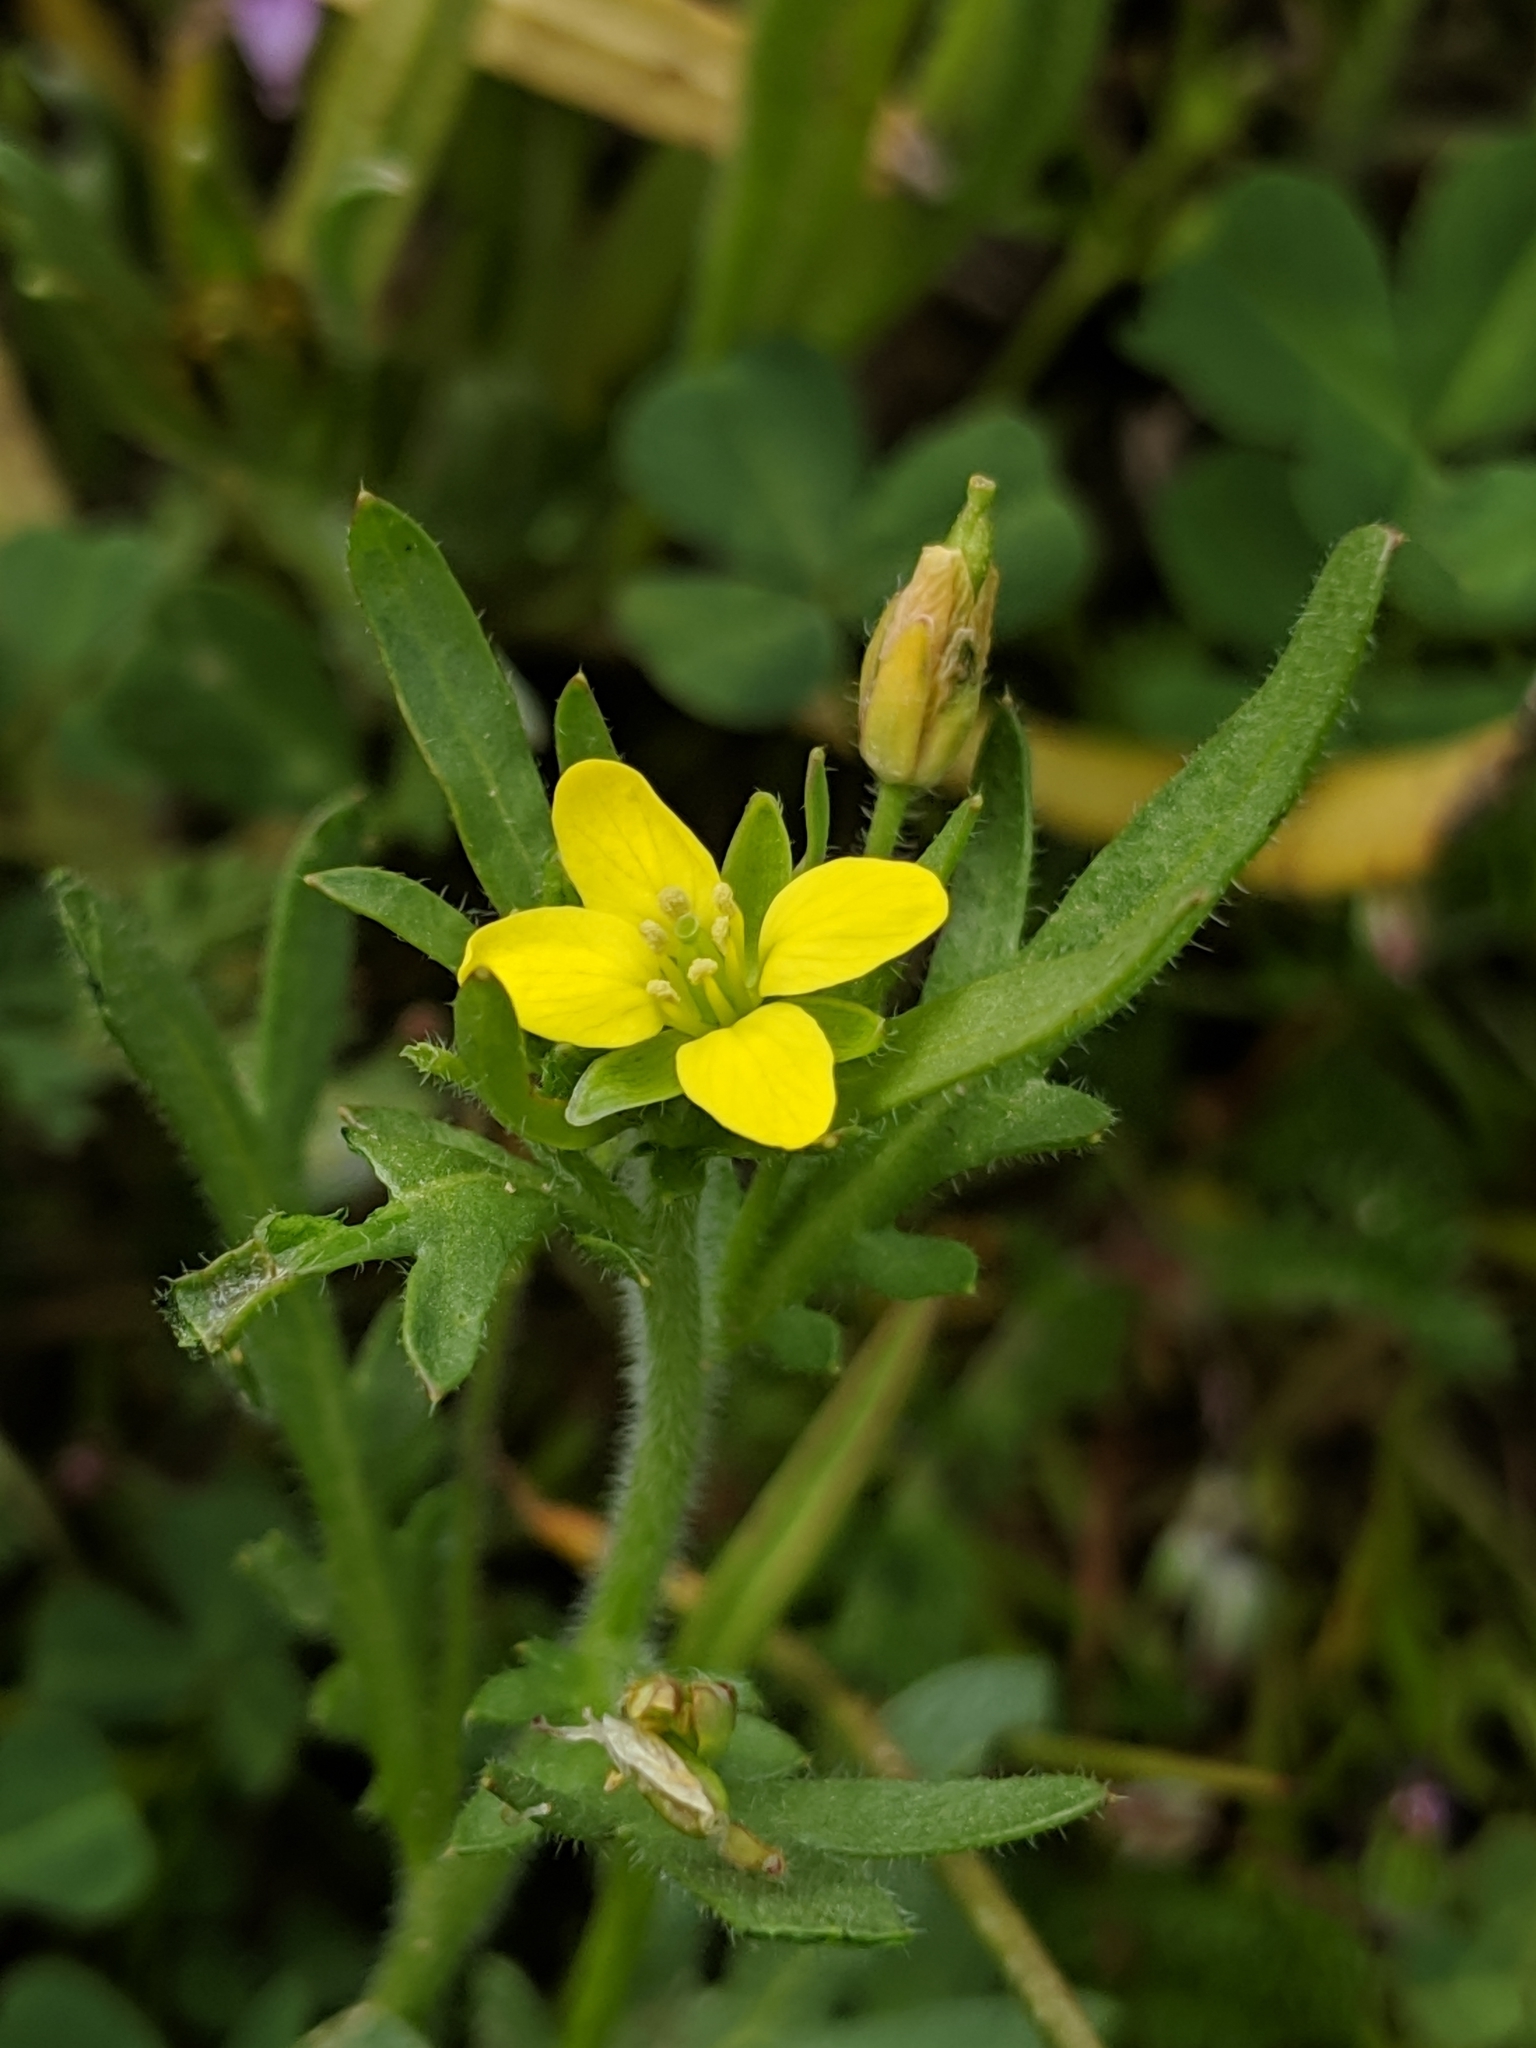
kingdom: Plantae
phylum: Tracheophyta
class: Magnoliopsida
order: Brassicales
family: Brassicaceae
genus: Tropidocarpum
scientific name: Tropidocarpum gracile
